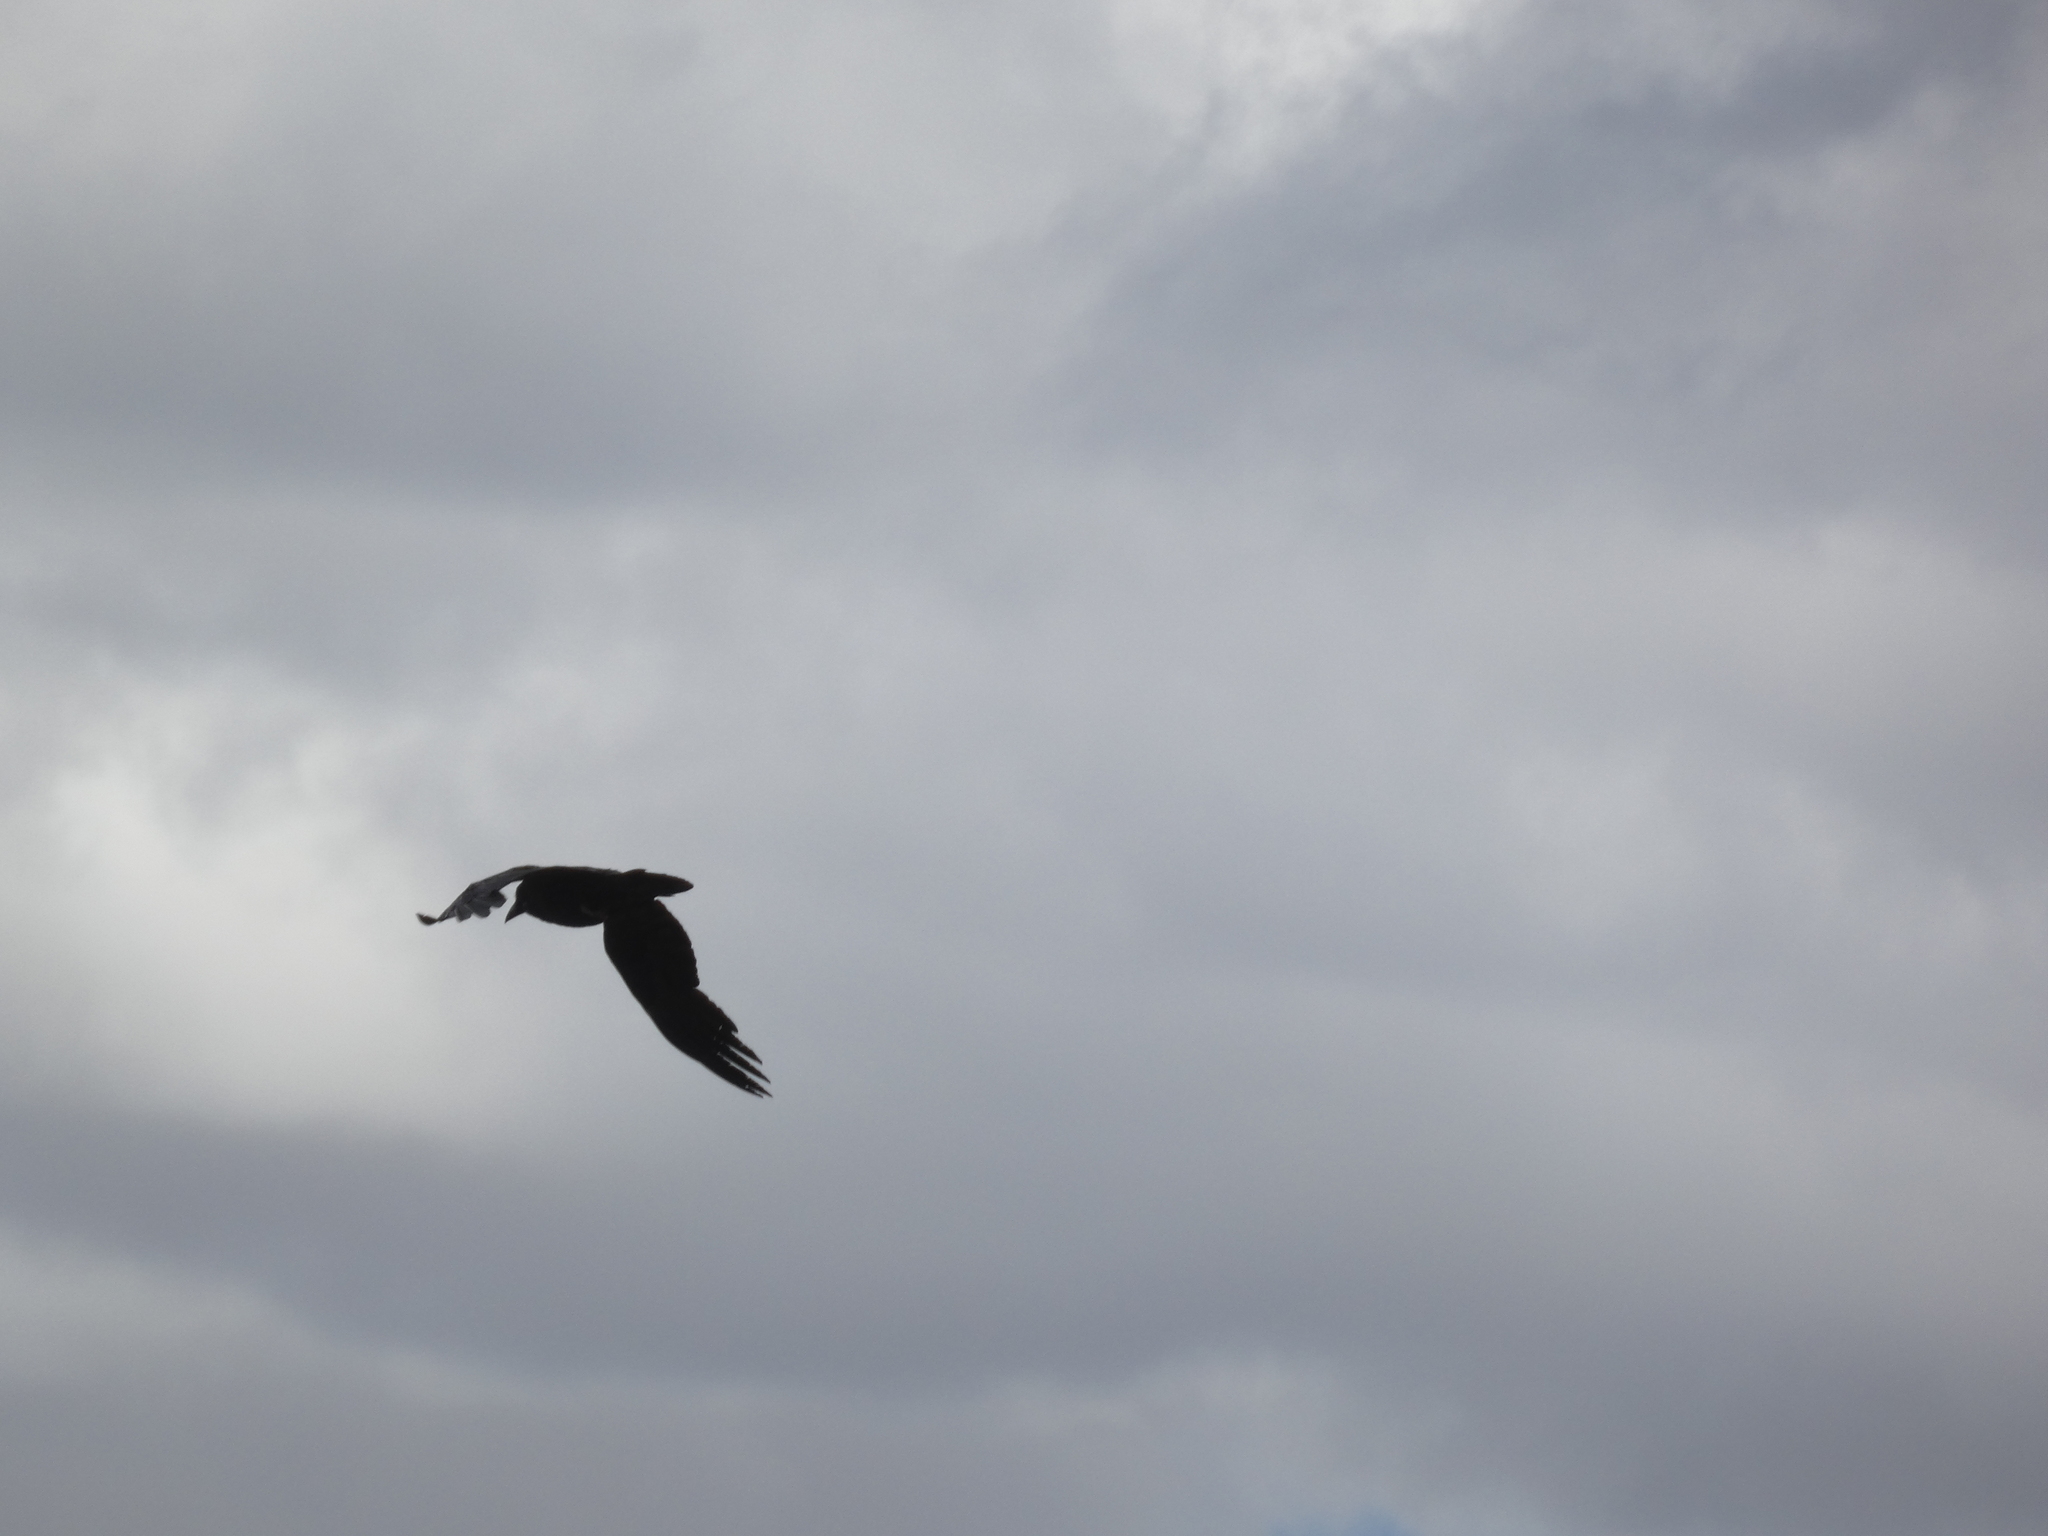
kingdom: Animalia
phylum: Chordata
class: Aves
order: Passeriformes
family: Corvidae
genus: Corvus
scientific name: Corvus corax
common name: Common raven
